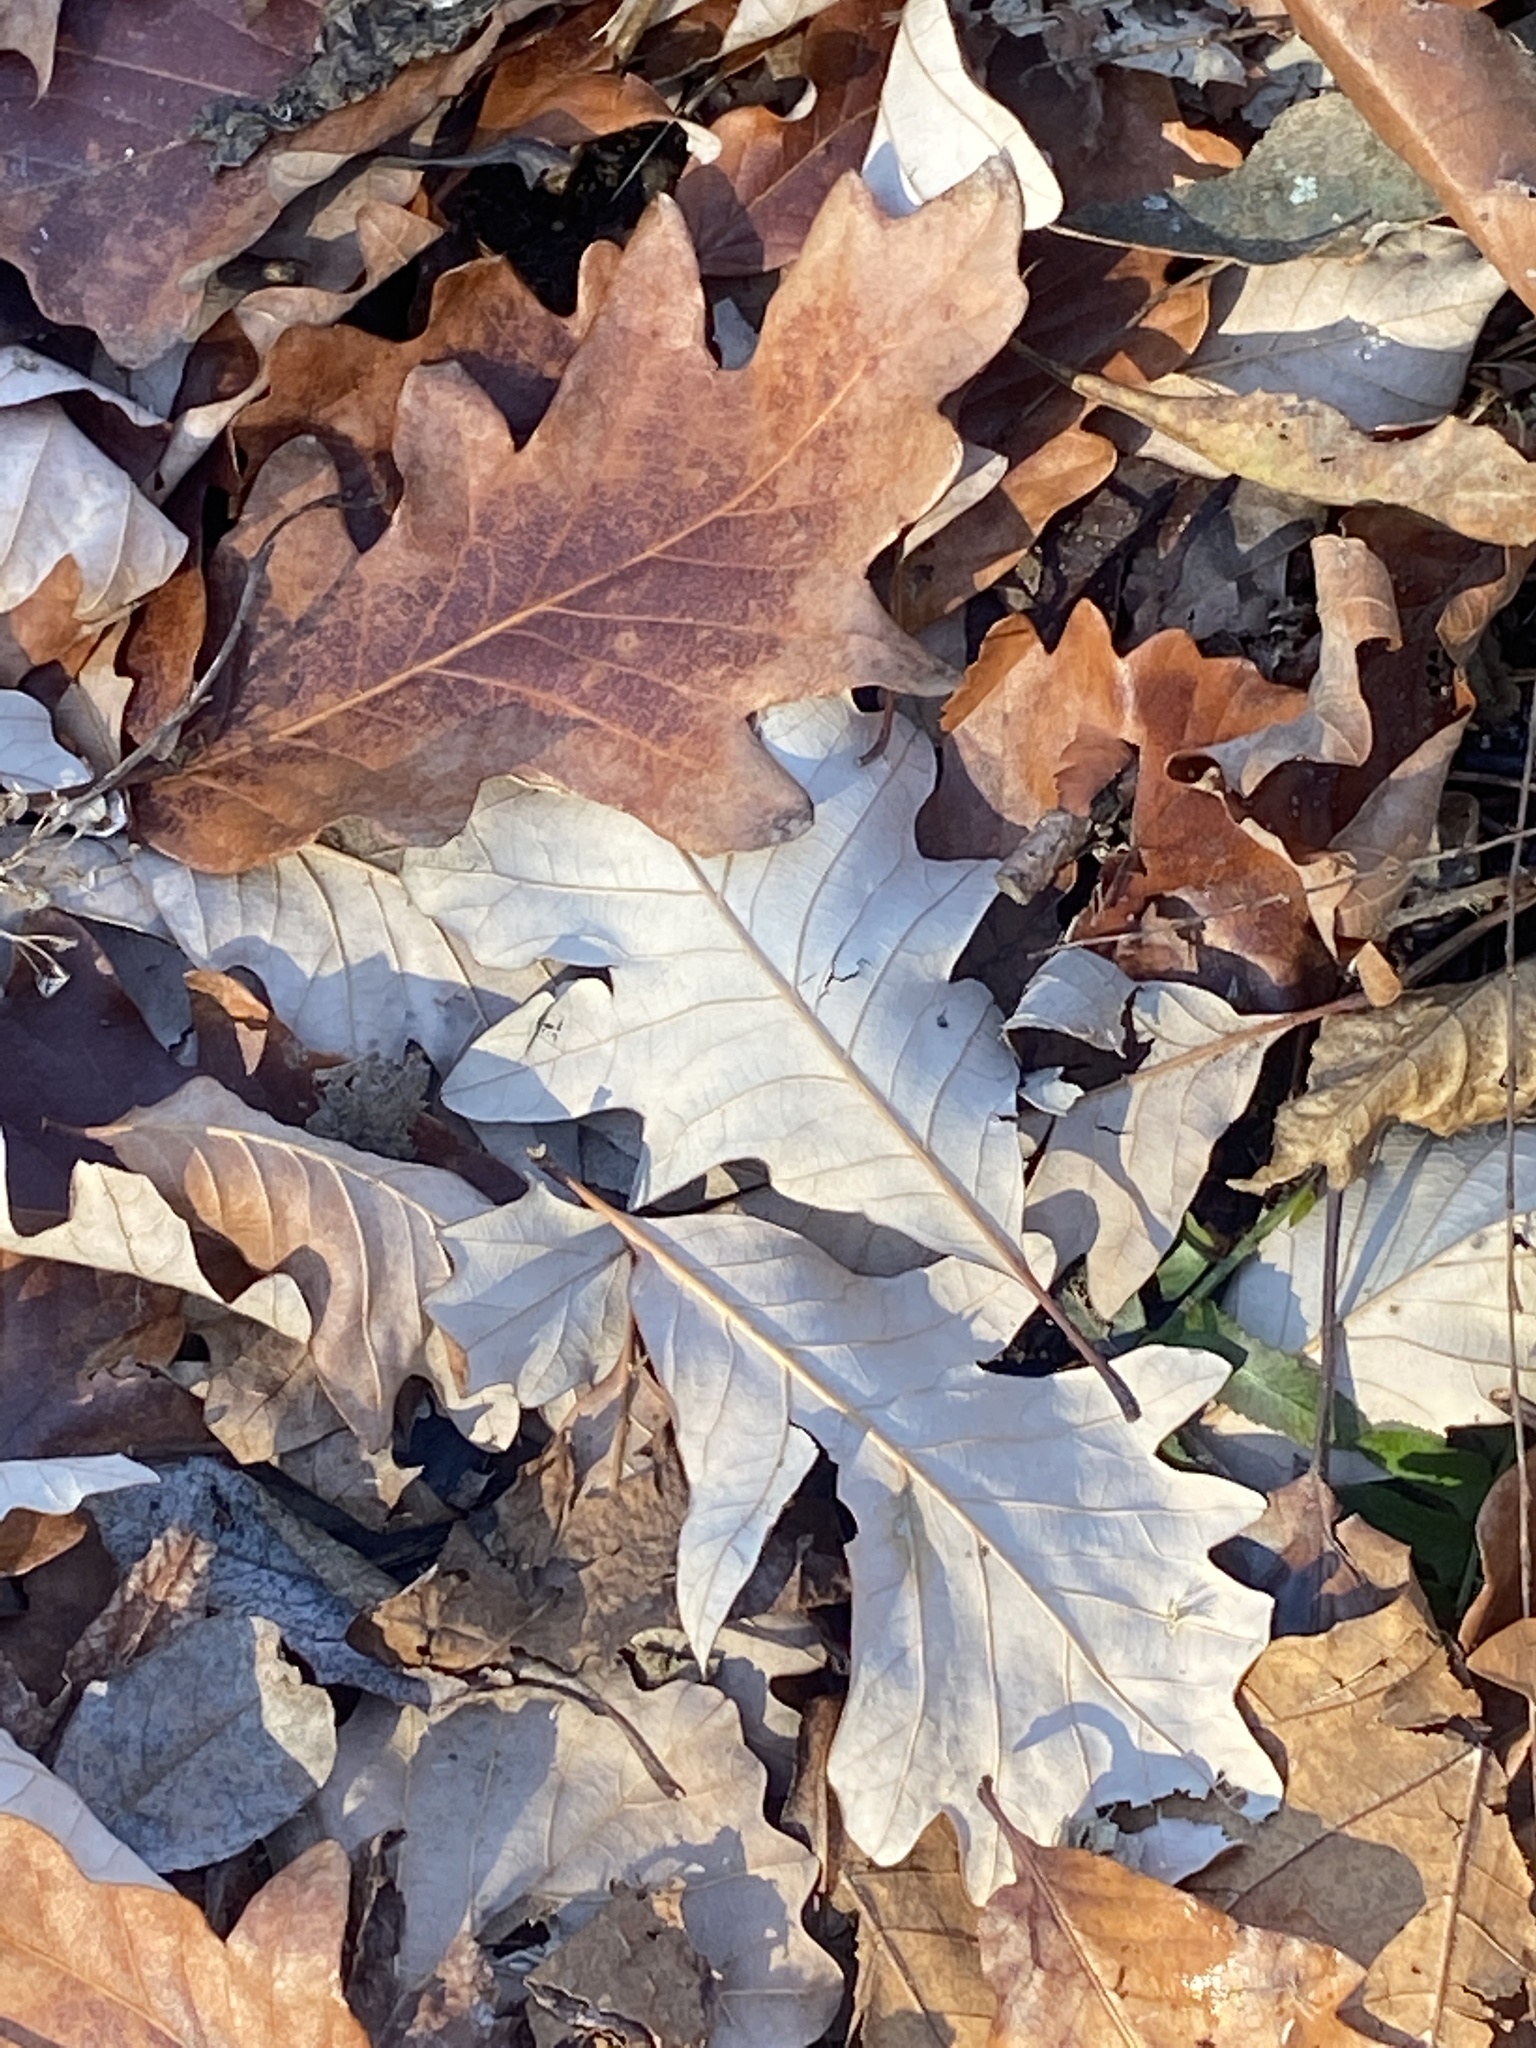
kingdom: Plantae
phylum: Tracheophyta
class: Magnoliopsida
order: Fagales
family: Fagaceae
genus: Quercus
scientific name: Quercus bicolor
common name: Swamp white oak
